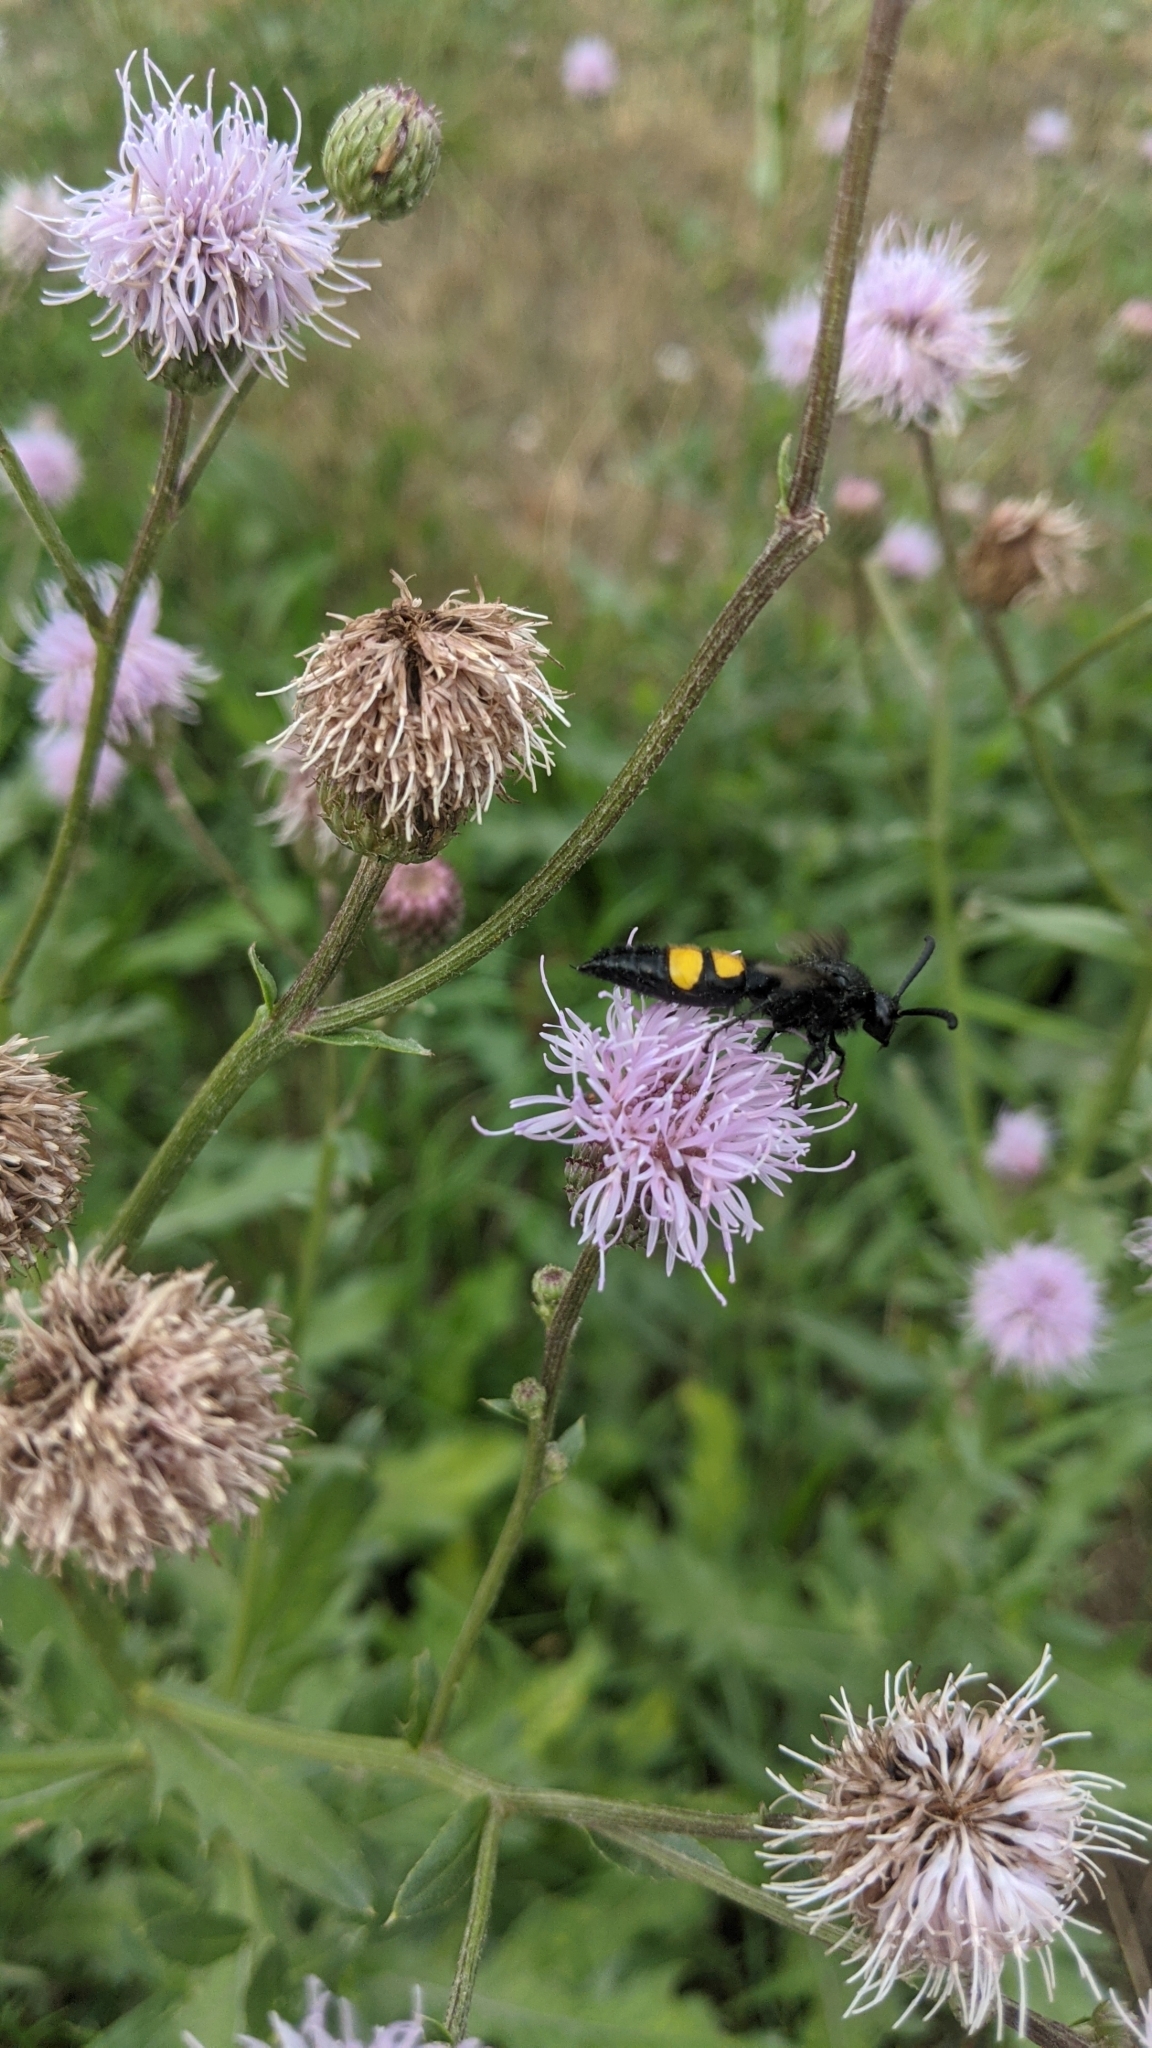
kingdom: Animalia
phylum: Arthropoda
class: Insecta
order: Hymenoptera
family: Scoliidae
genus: Scolia
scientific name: Scolia hirta
